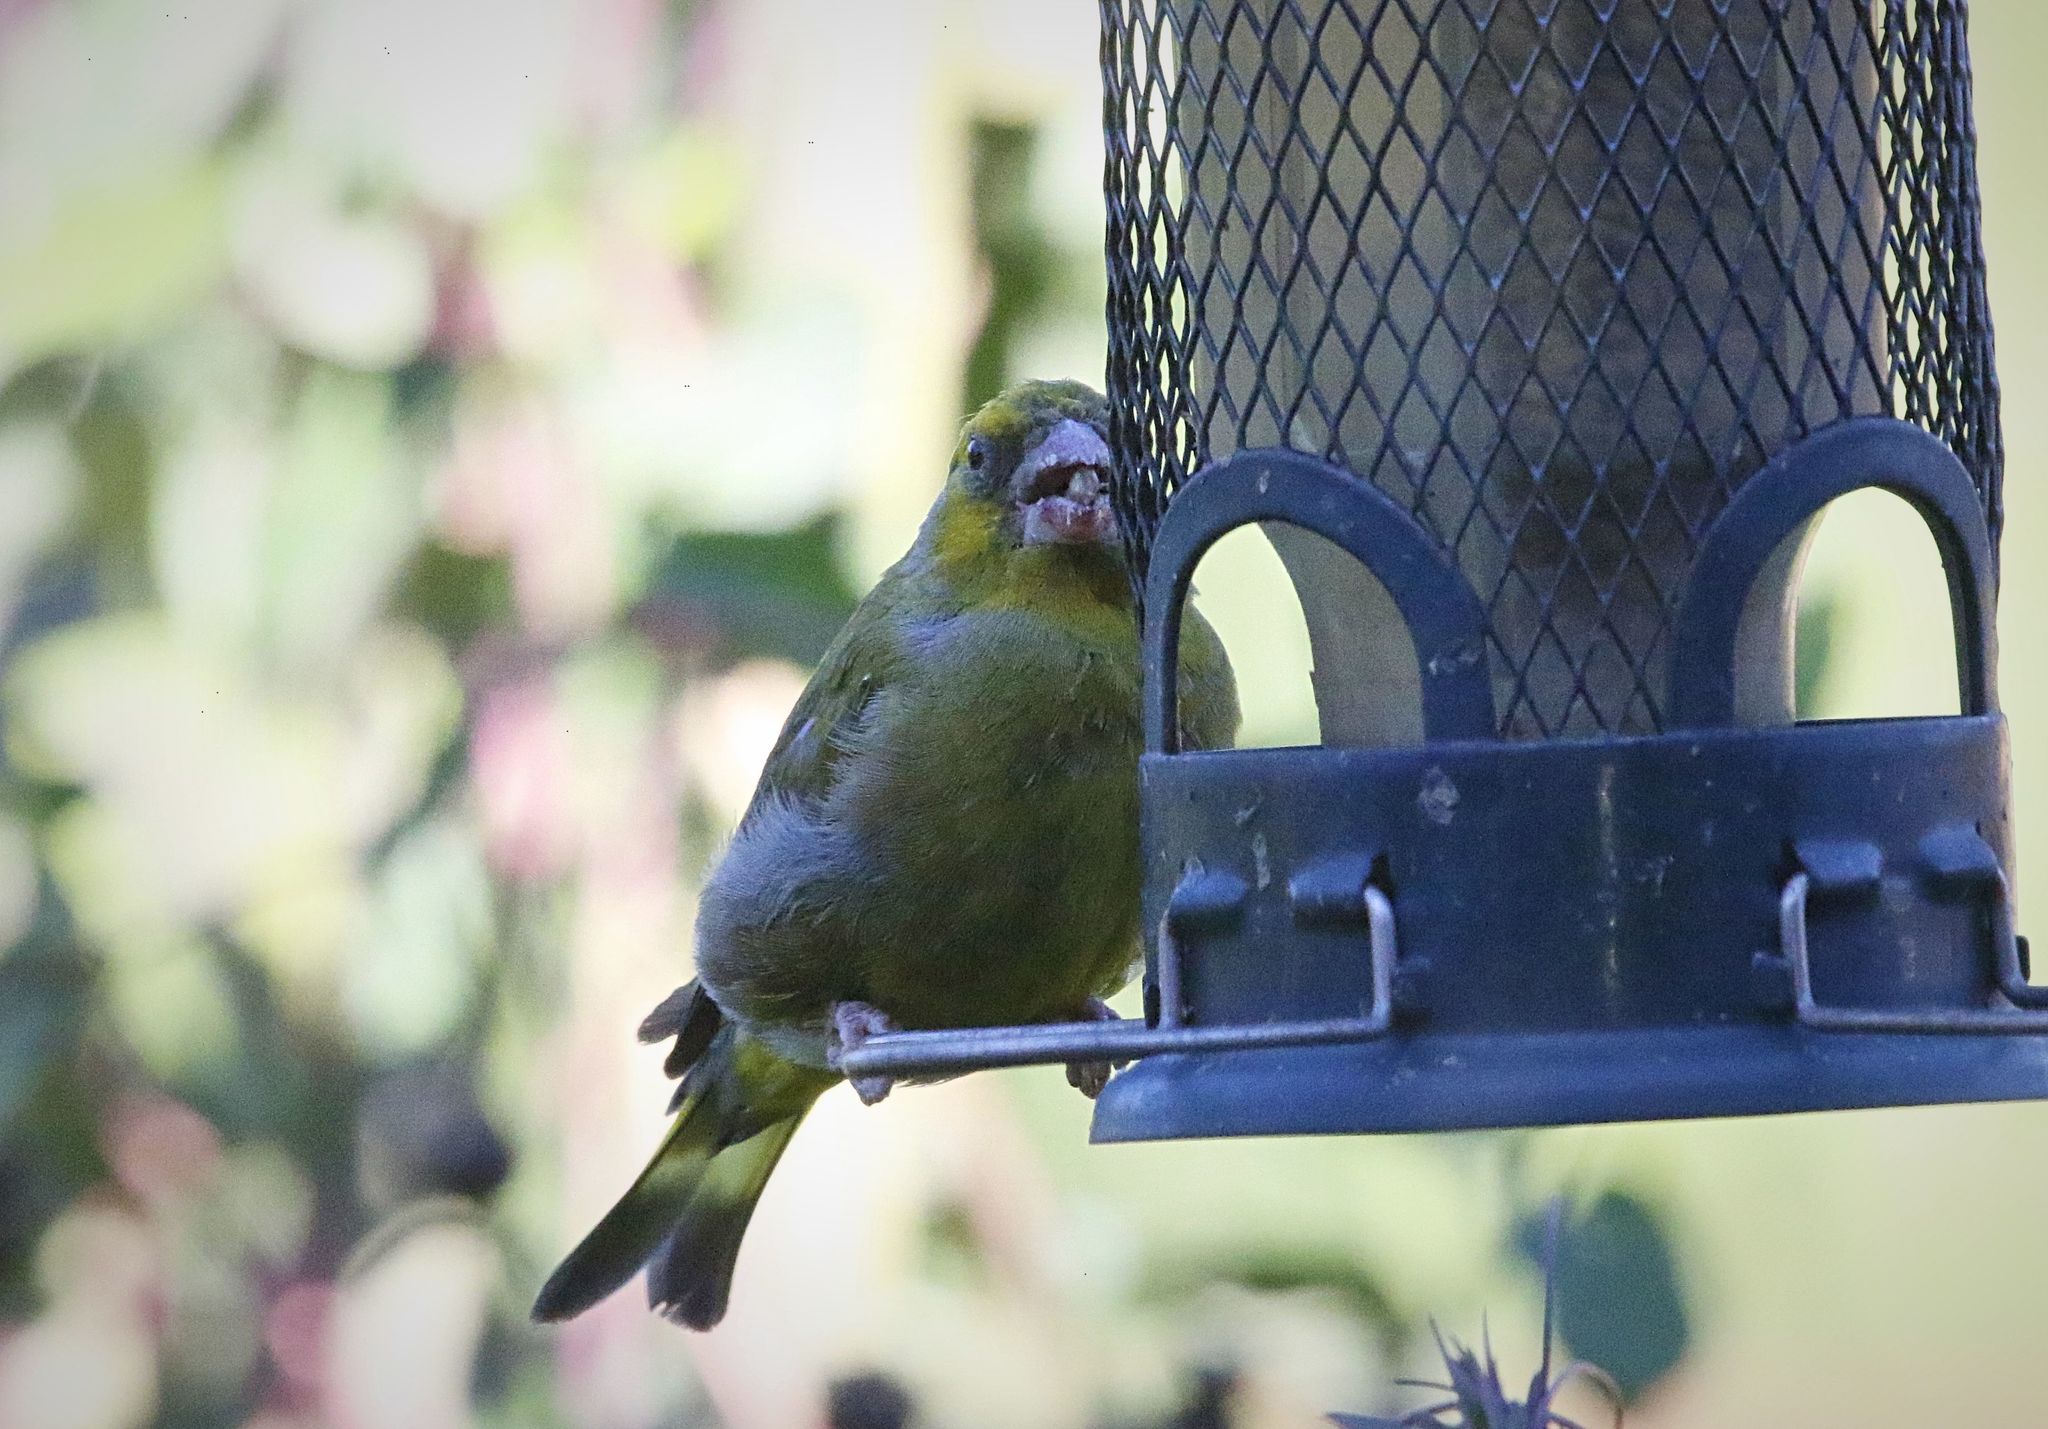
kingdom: Plantae
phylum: Tracheophyta
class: Liliopsida
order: Poales
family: Poaceae
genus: Chloris
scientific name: Chloris chloris
